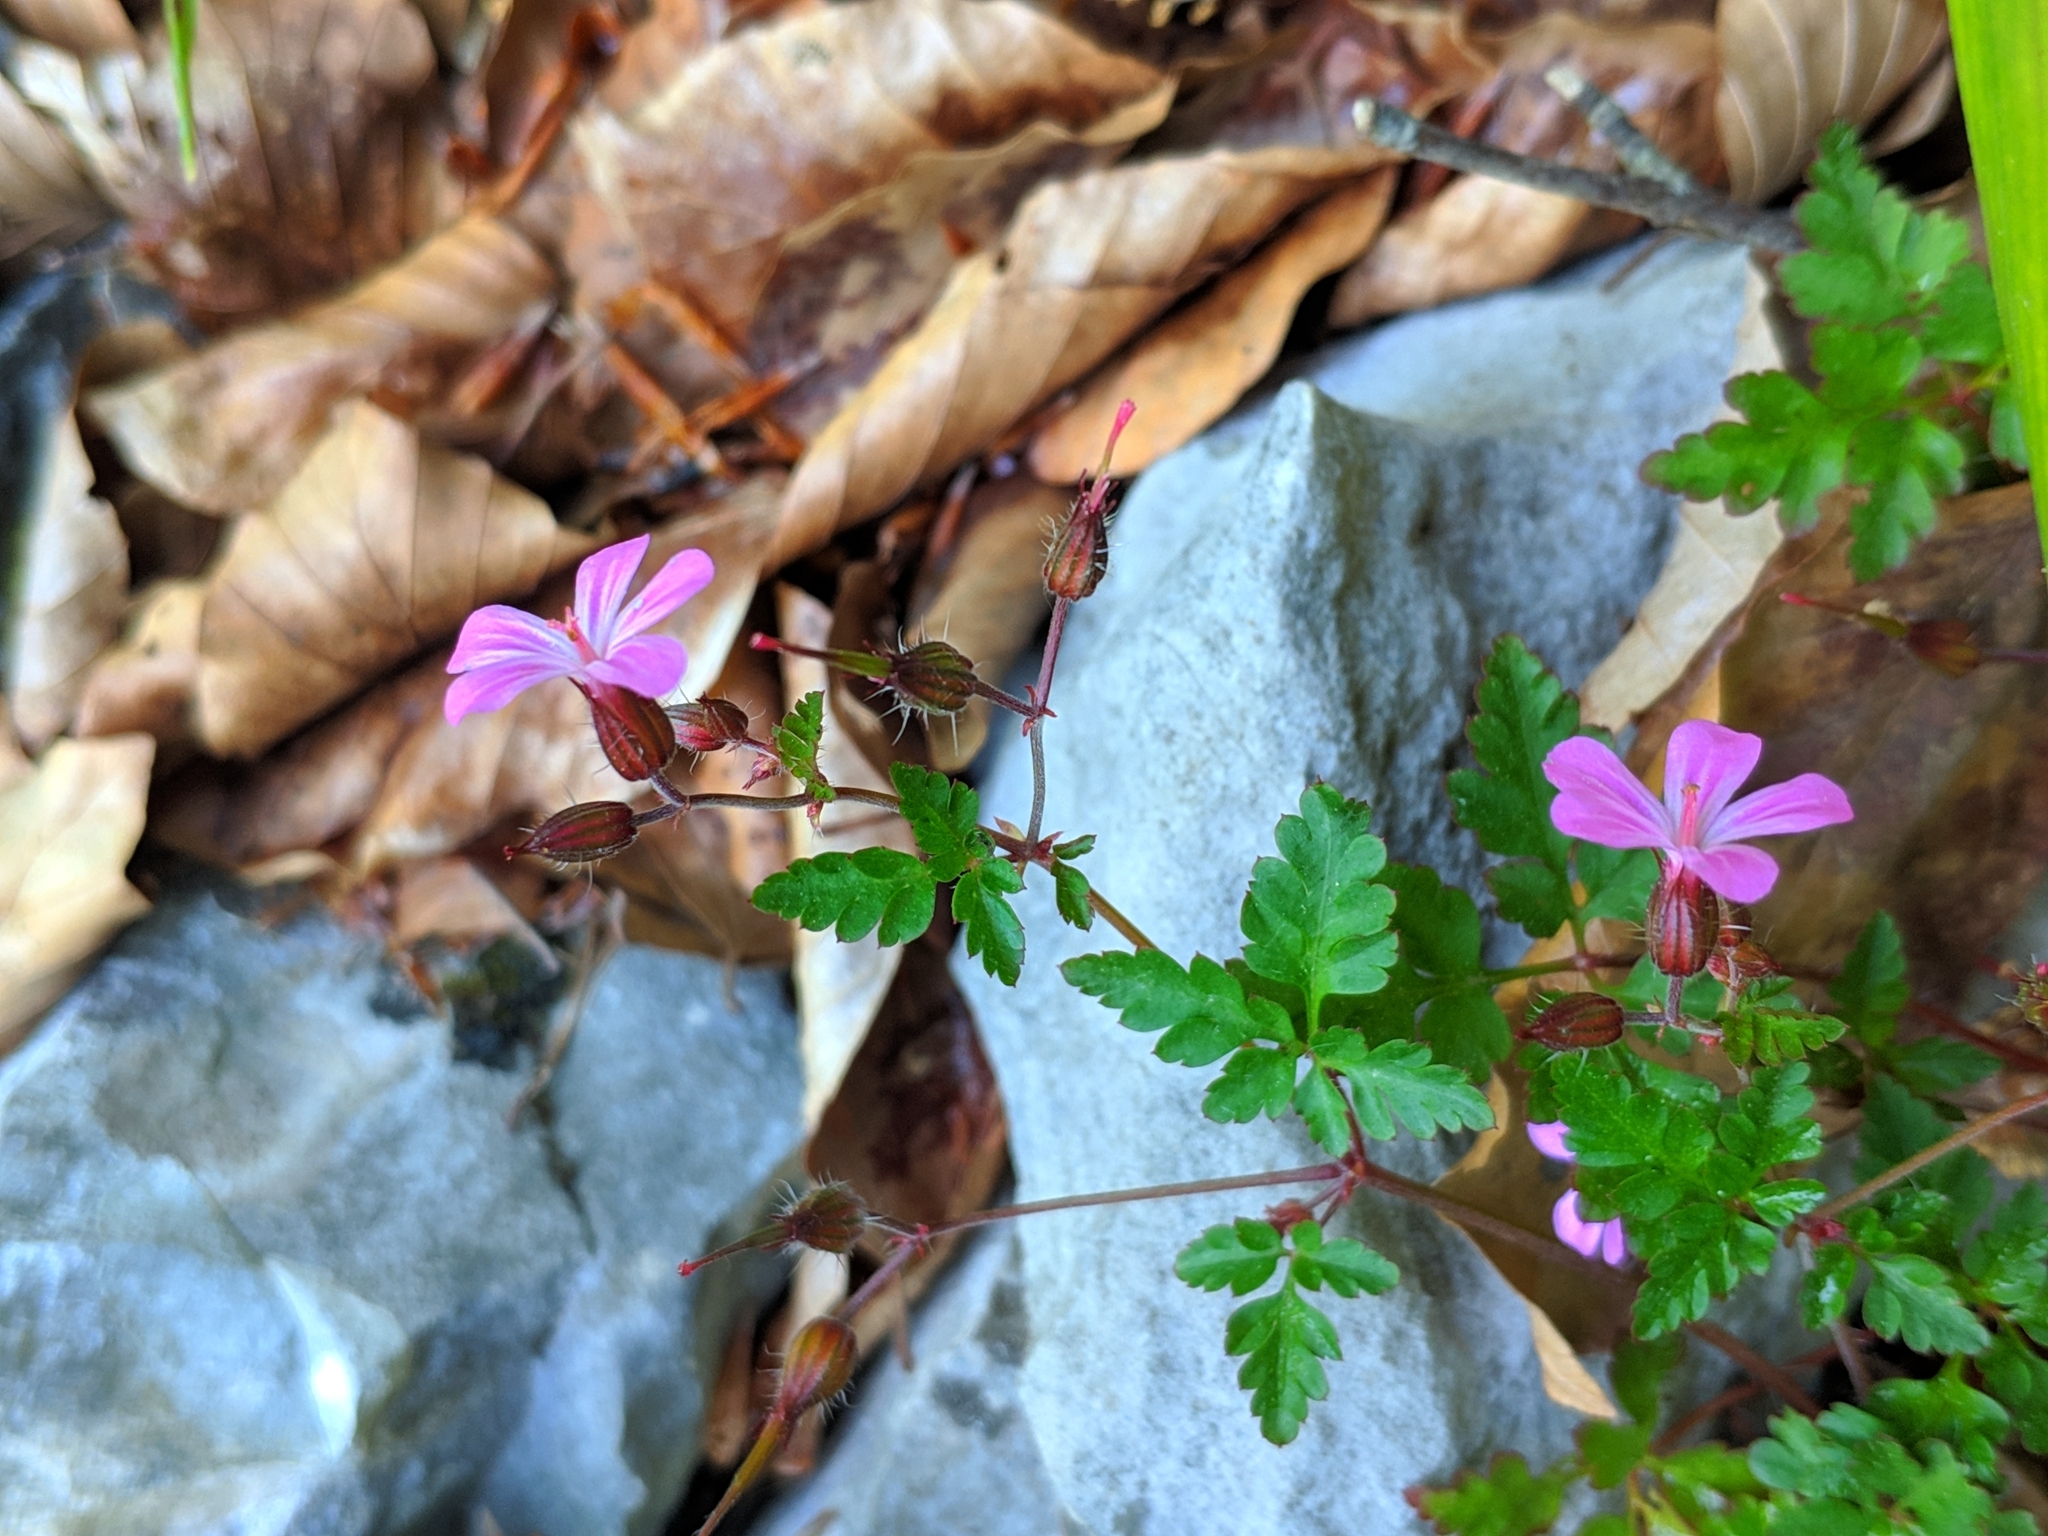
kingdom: Plantae
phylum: Tracheophyta
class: Magnoliopsida
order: Geraniales
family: Geraniaceae
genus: Geranium
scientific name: Geranium robertianum
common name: Herb-robert
